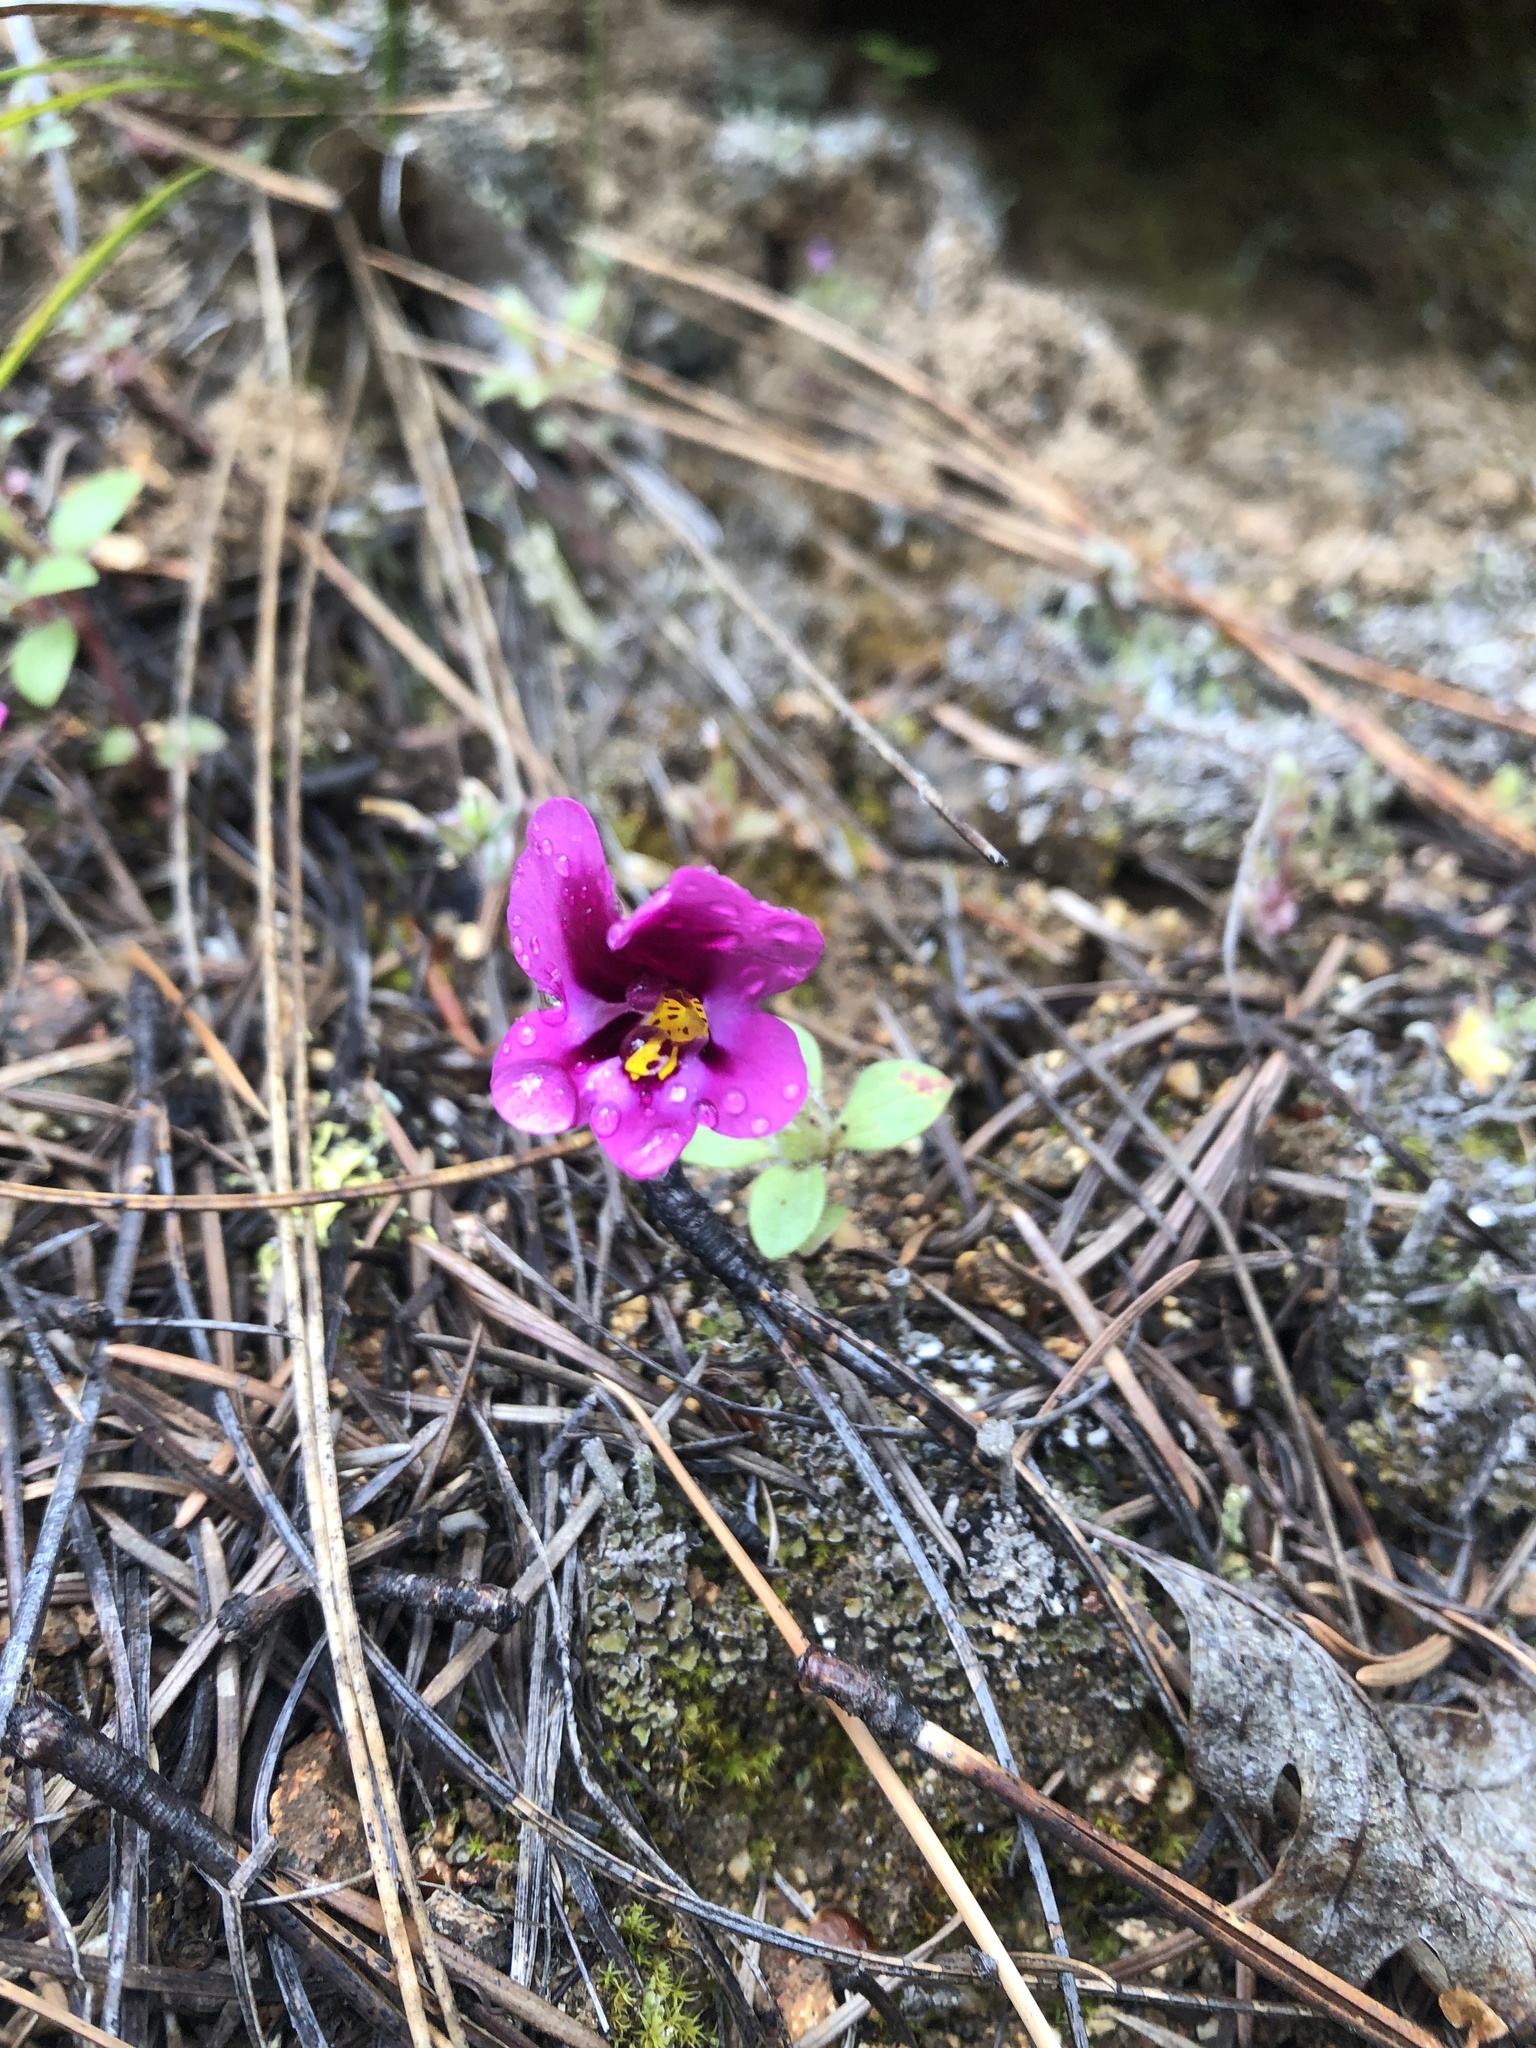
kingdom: Plantae
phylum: Tracheophyta
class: Magnoliopsida
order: Lamiales
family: Phrymaceae
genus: Diplacus
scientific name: Diplacus kelloggii
